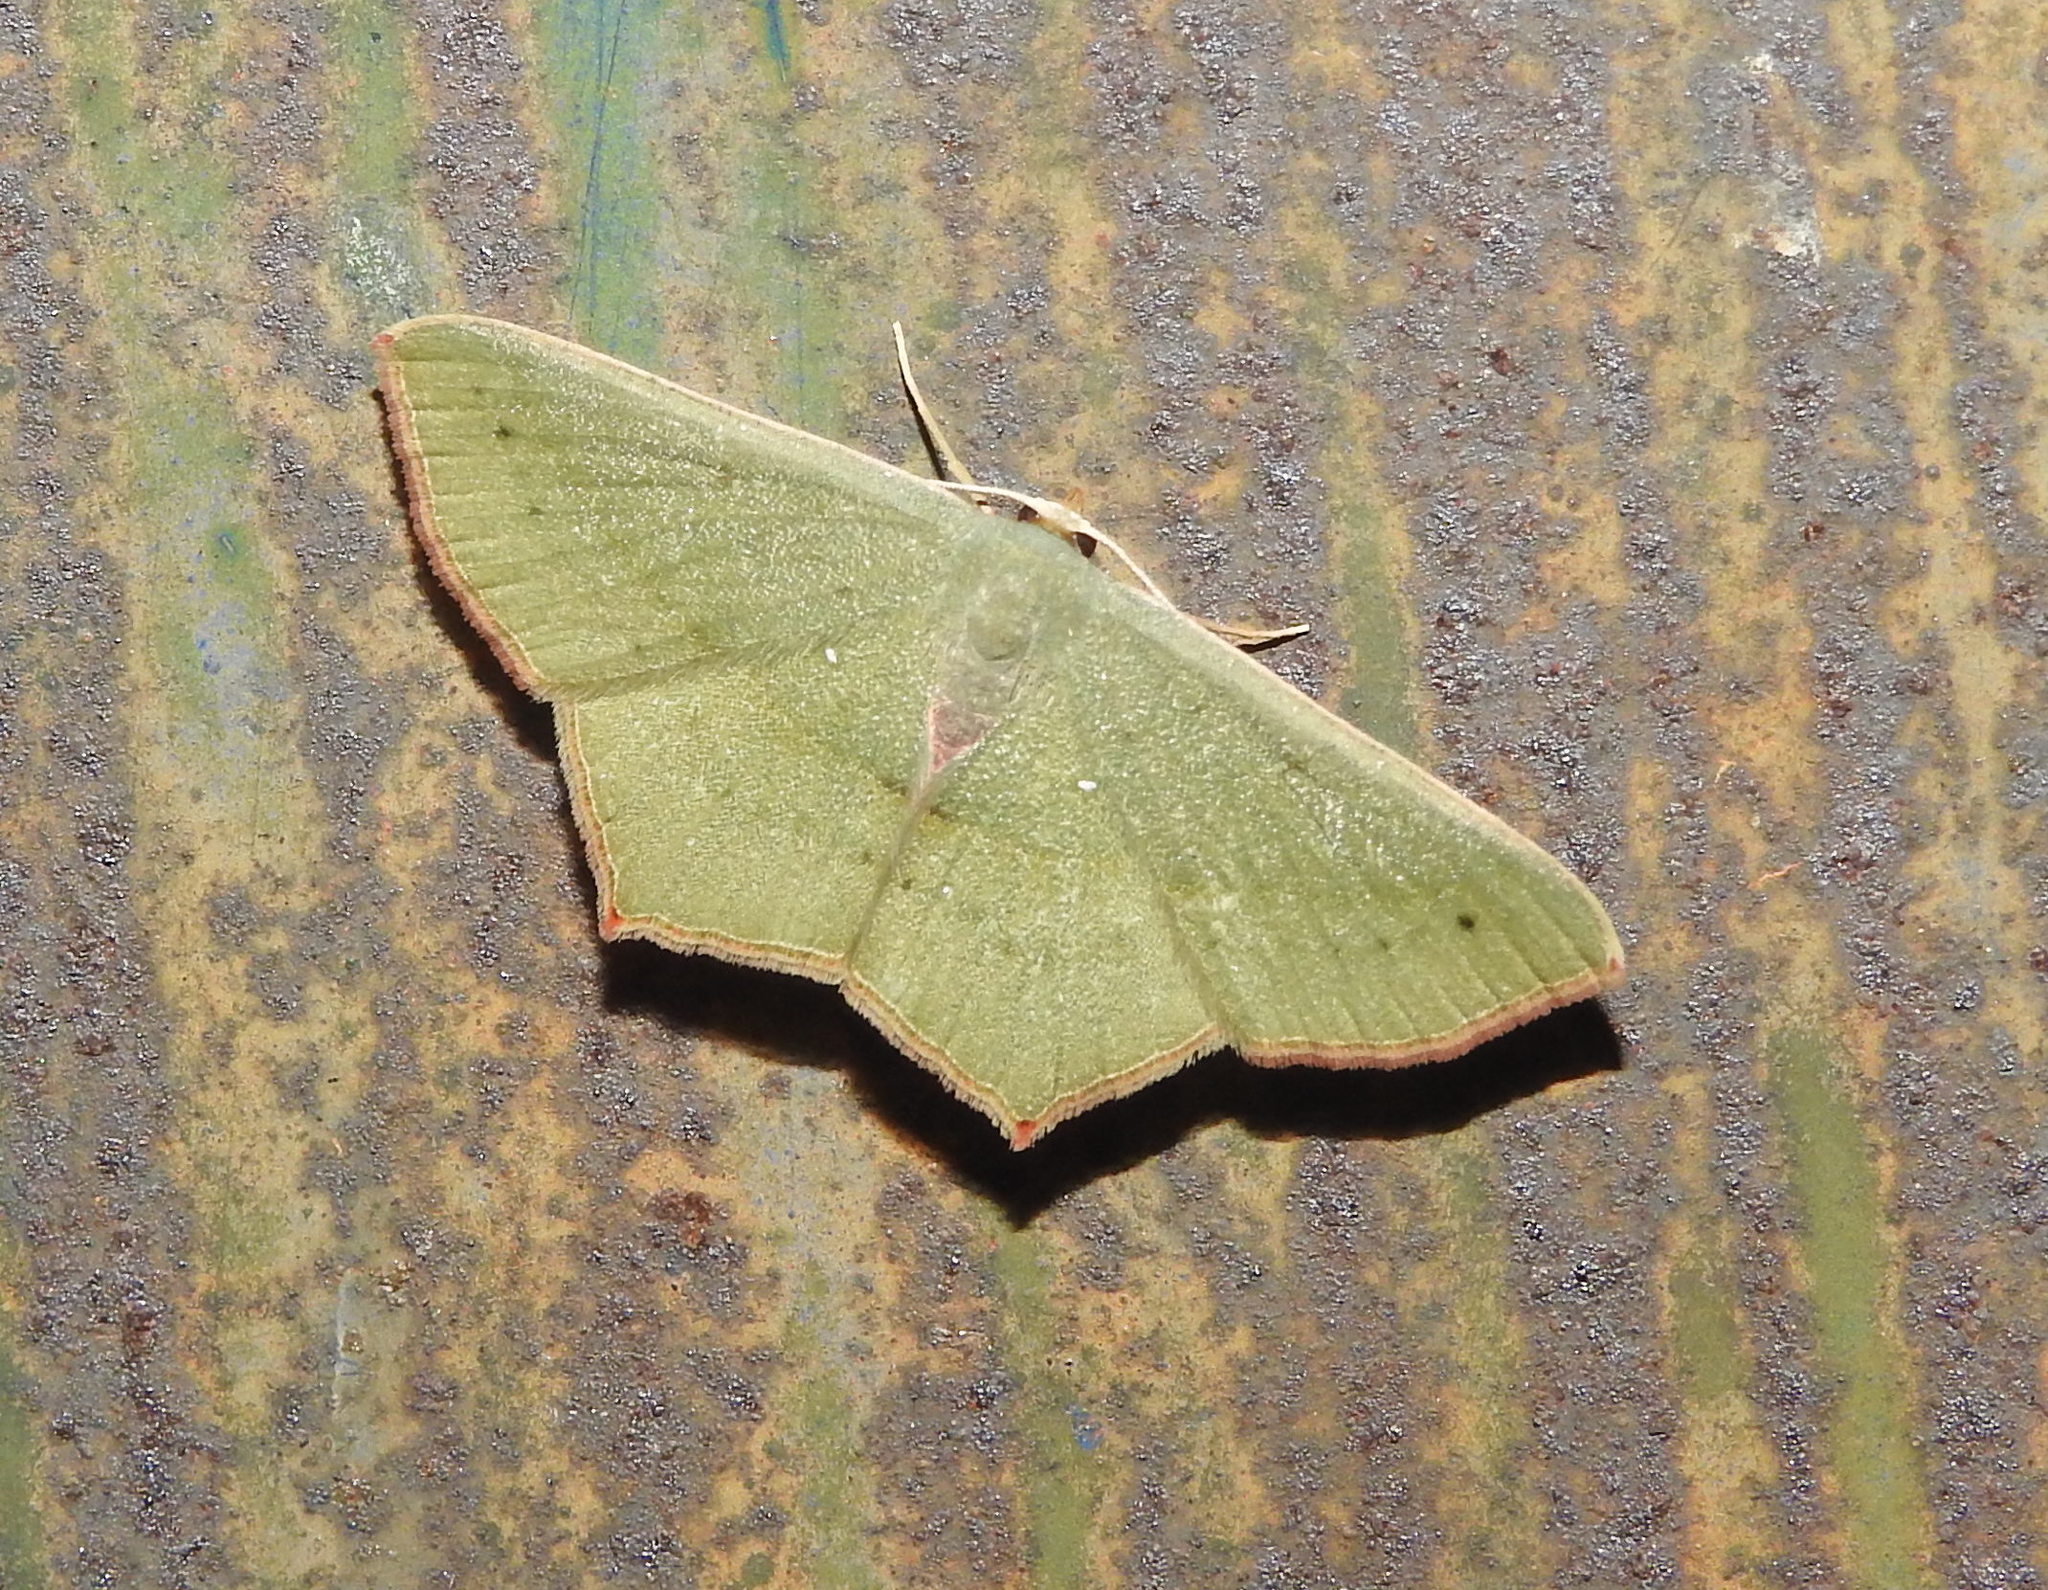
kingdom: Animalia
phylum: Arthropoda
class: Insecta
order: Lepidoptera
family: Geometridae
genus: Traminda
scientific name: Traminda mundissima
